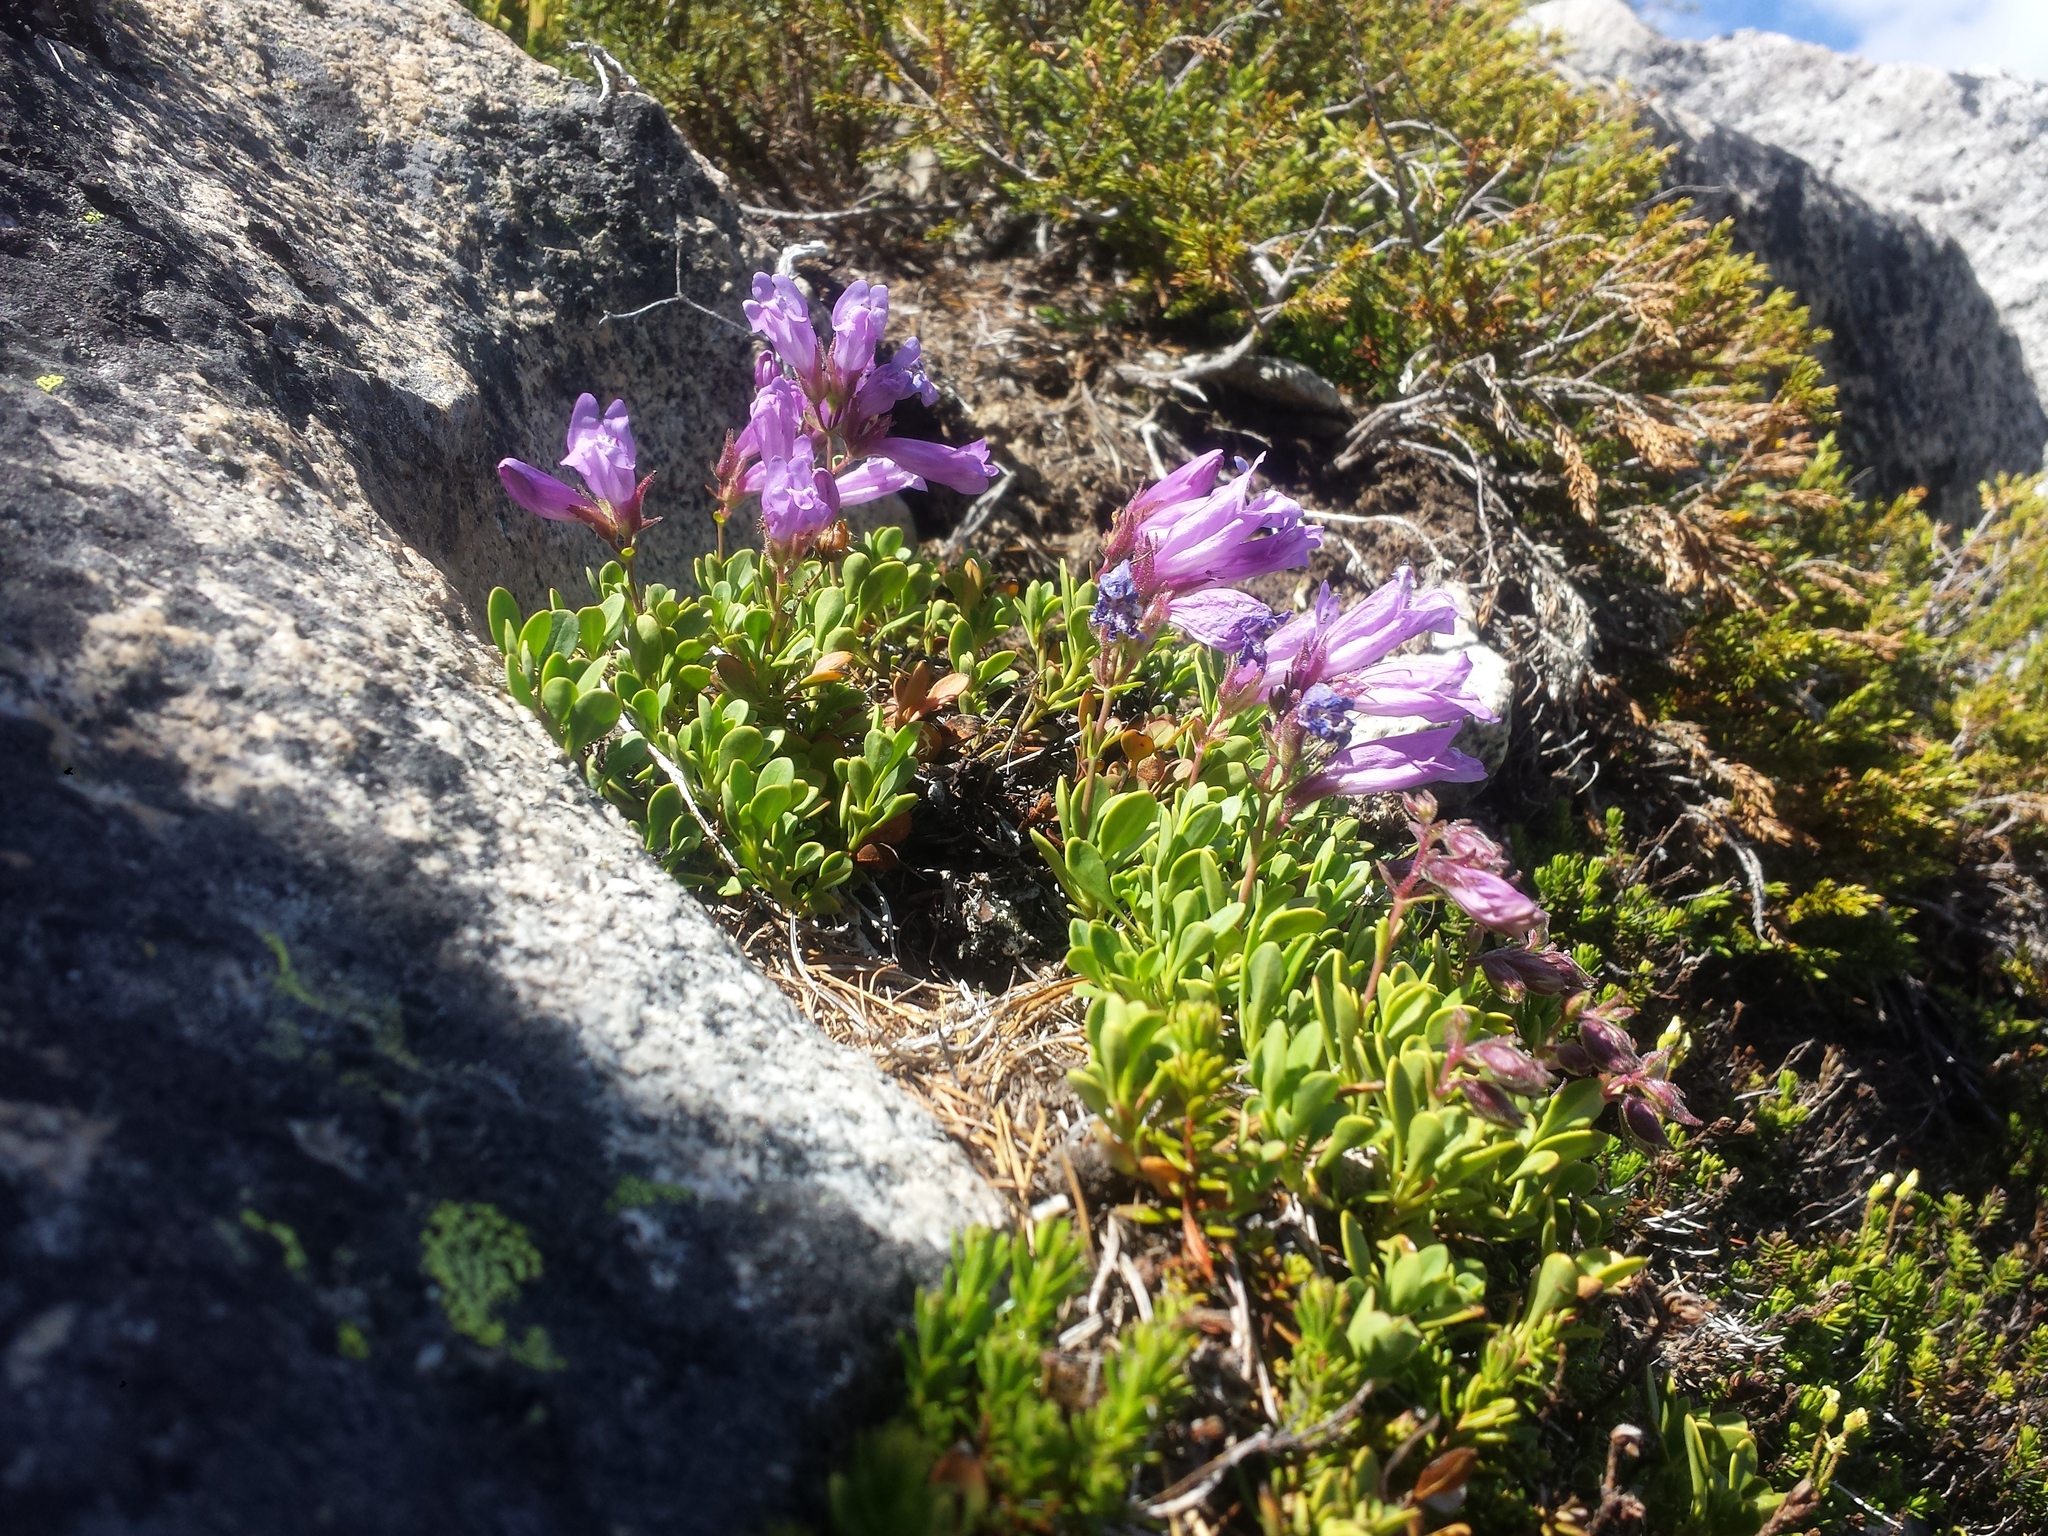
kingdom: Plantae
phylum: Tracheophyta
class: Magnoliopsida
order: Lamiales
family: Plantaginaceae
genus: Penstemon
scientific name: Penstemon davidsonii
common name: Davidson's penstemon
